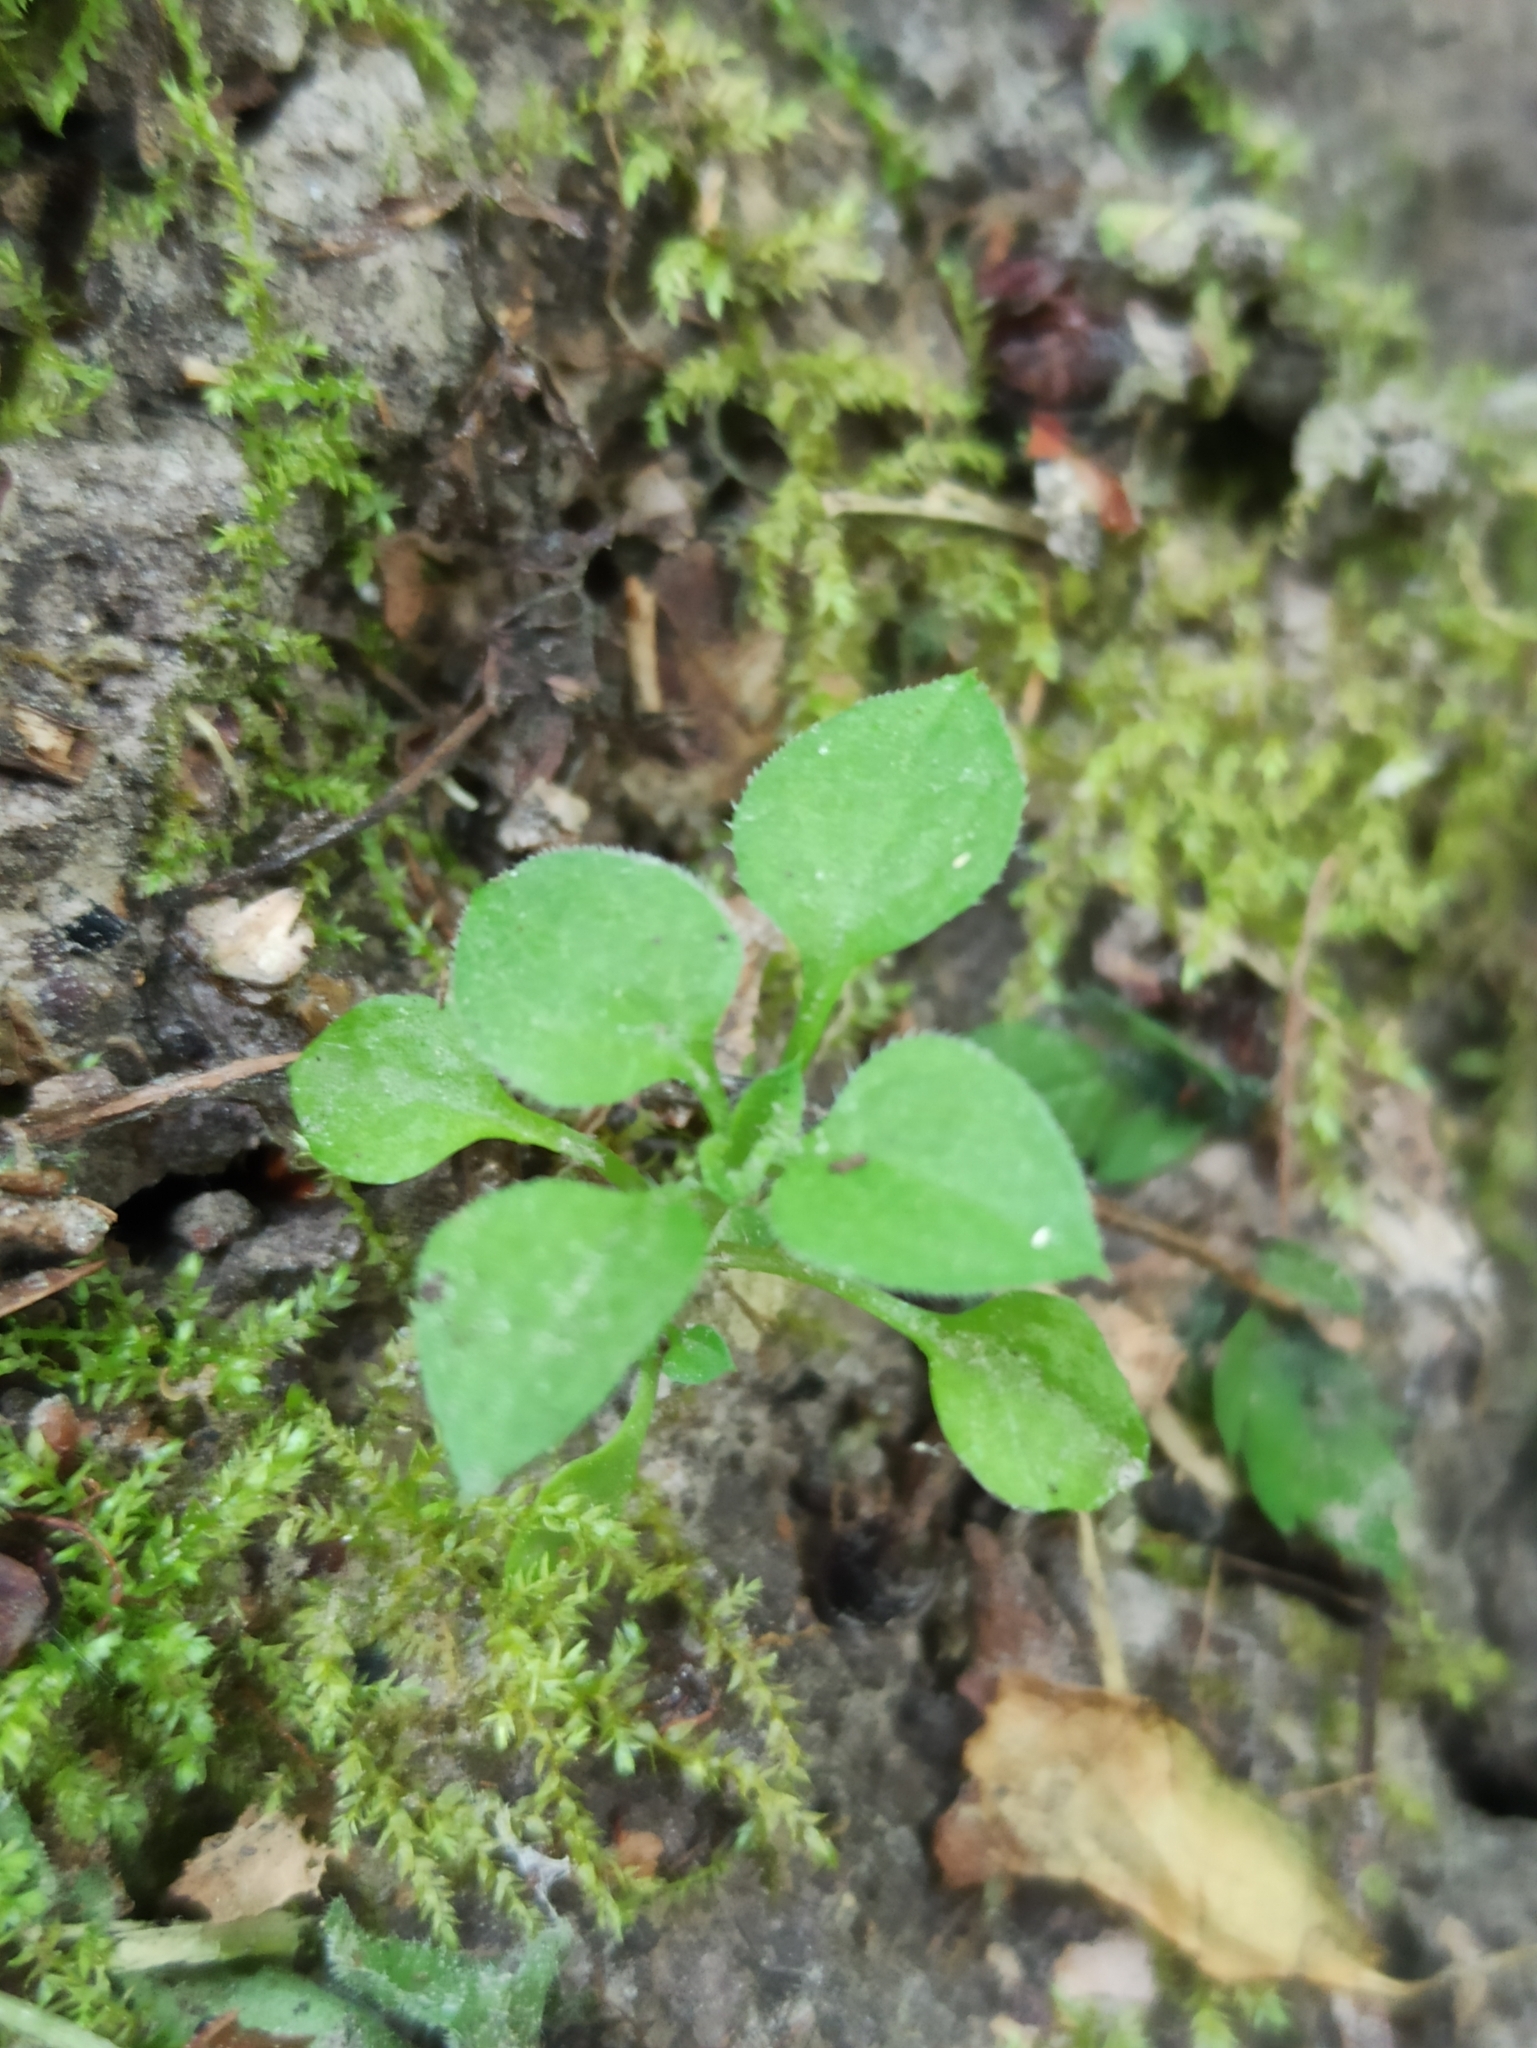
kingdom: Plantae
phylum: Tracheophyta
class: Magnoliopsida
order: Caryophyllales
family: Caryophyllaceae
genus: Moehringia
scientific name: Moehringia trinervia
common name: Three-nerved sandwort
